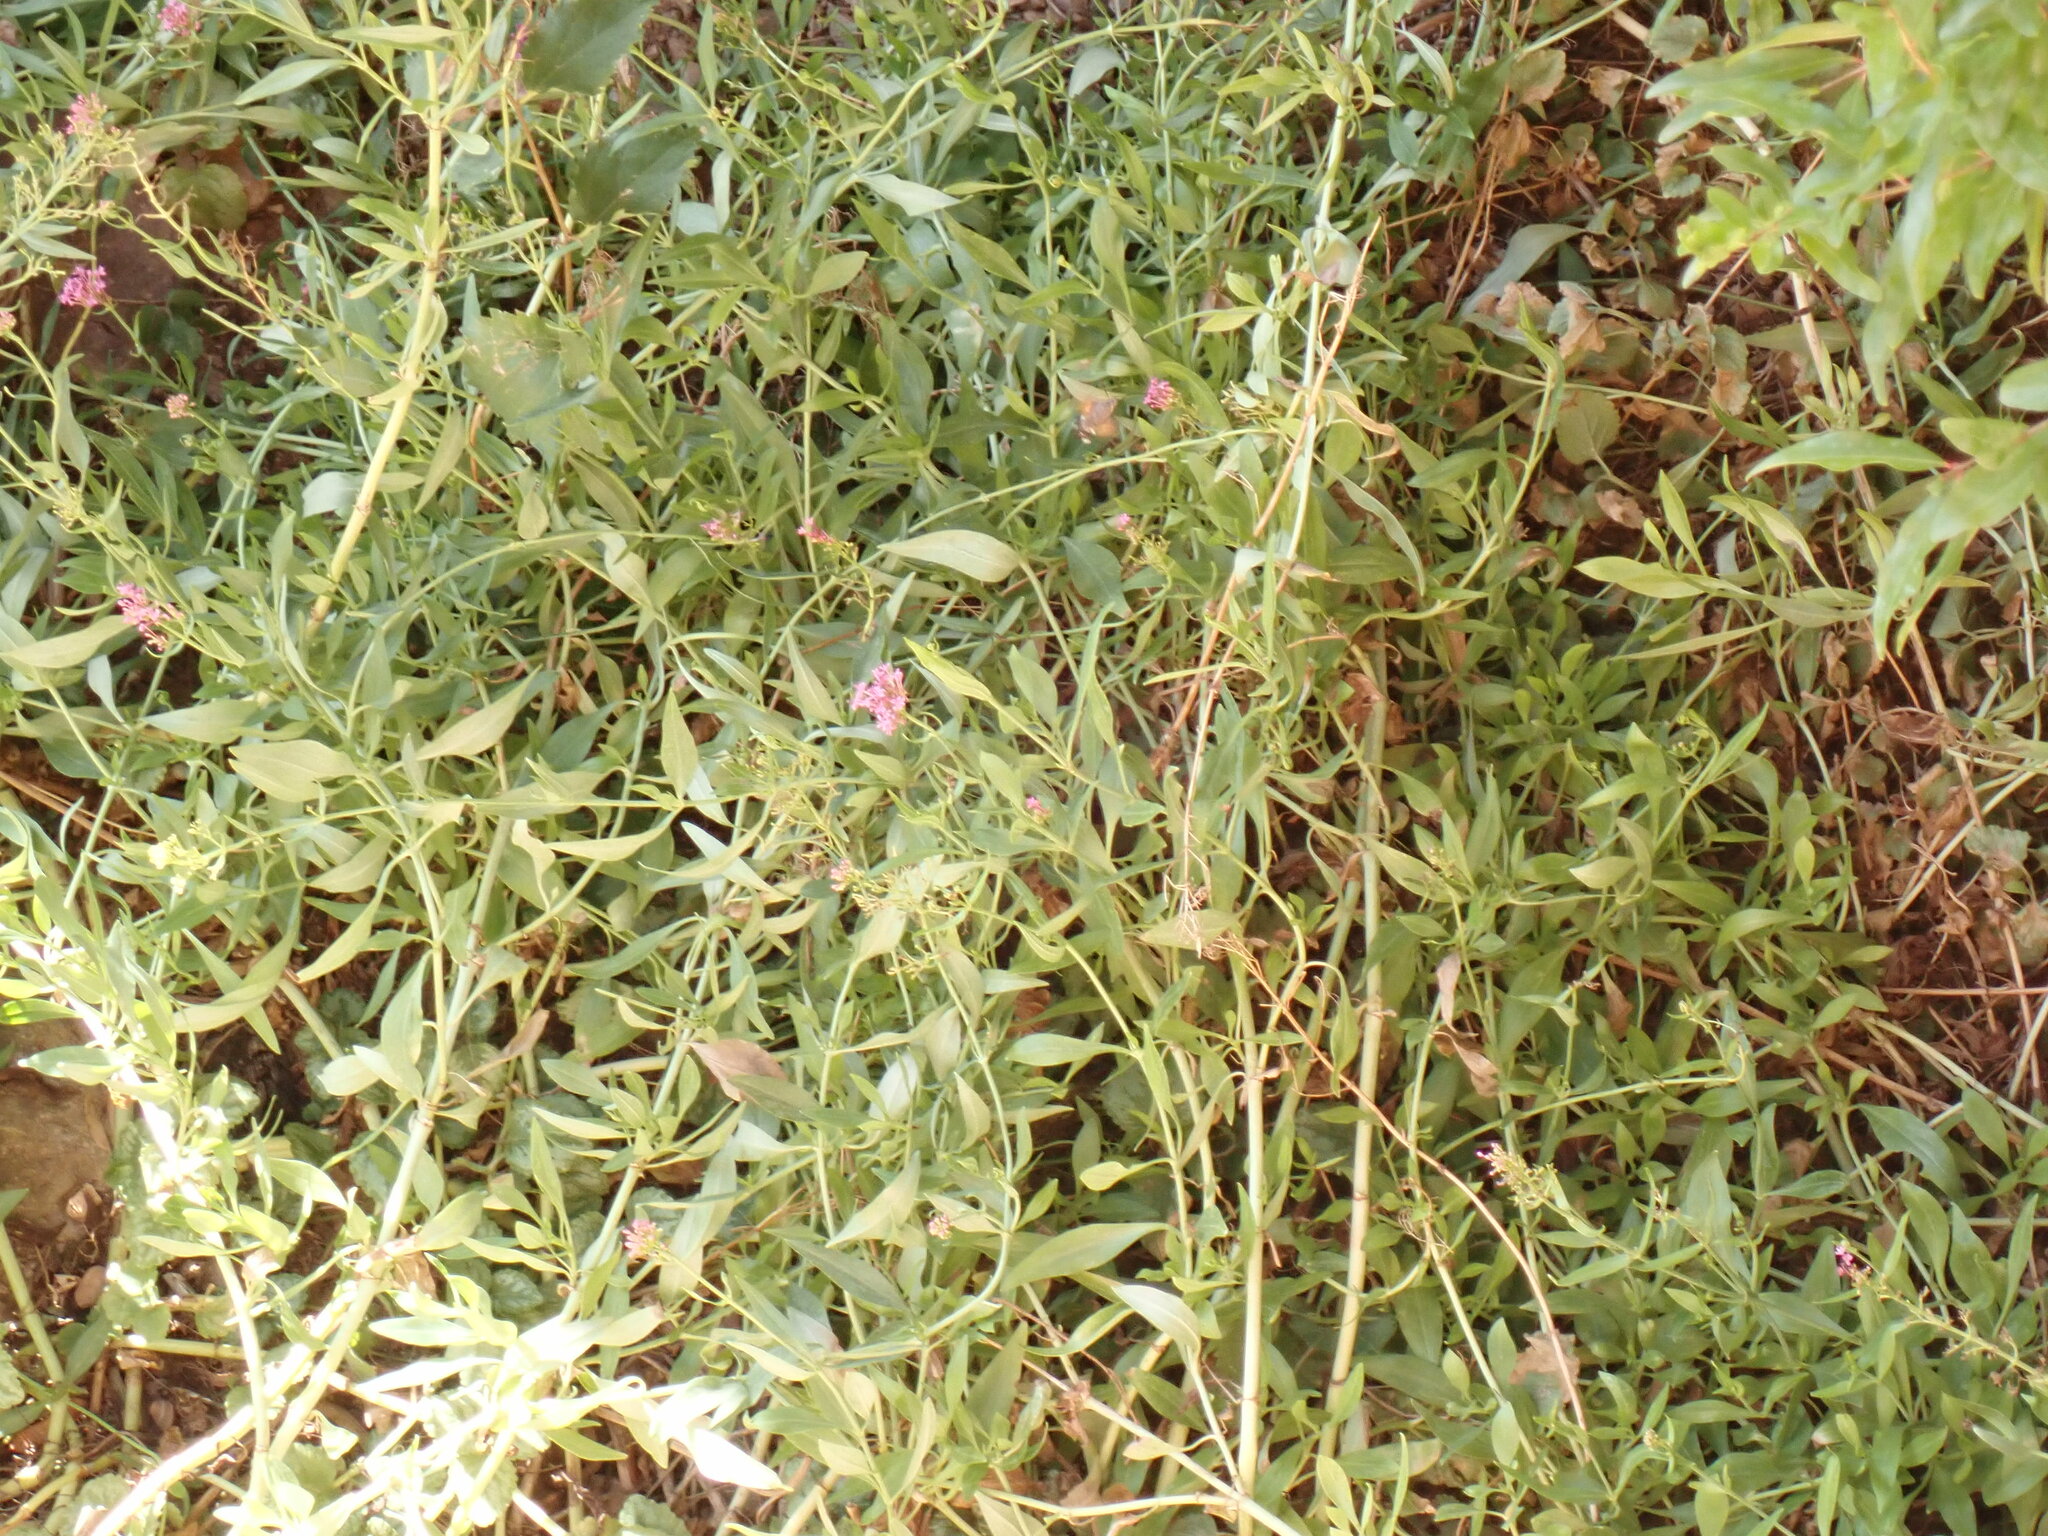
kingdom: Animalia
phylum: Arthropoda
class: Insecta
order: Lepidoptera
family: Sphingidae
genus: Macroglossum
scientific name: Macroglossum stellatarum
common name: Humming-bird hawk-moth
